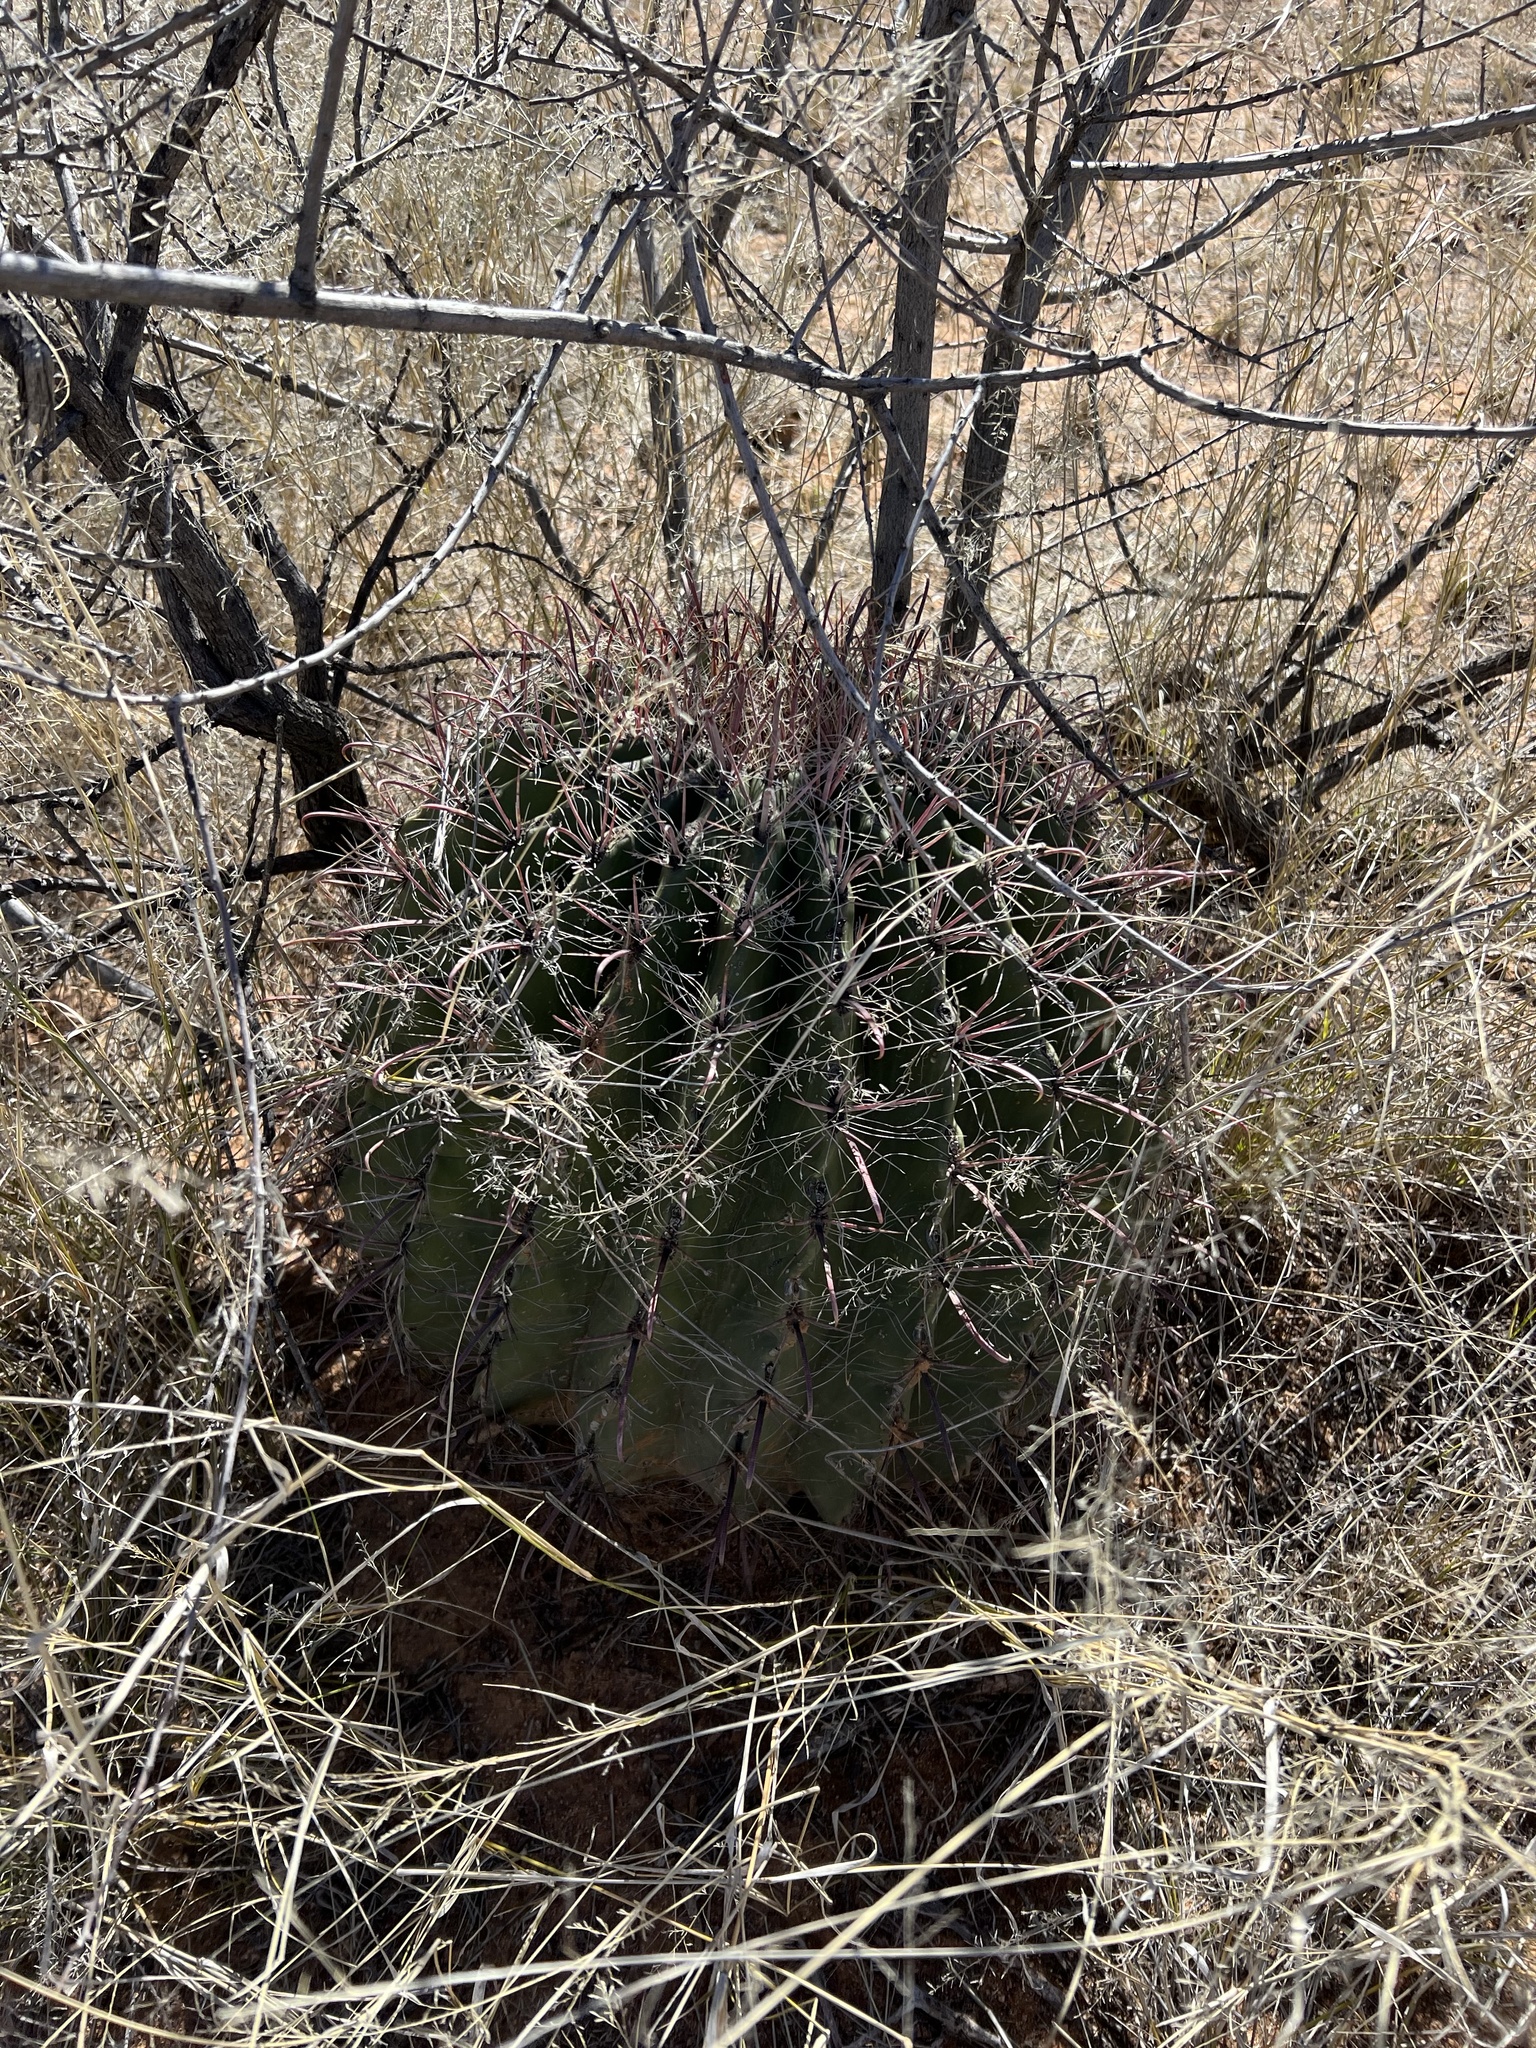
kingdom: Plantae
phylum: Tracheophyta
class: Magnoliopsida
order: Caryophyllales
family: Cactaceae
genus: Ferocactus
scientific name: Ferocactus wislizeni
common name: Candy barrel cactus
